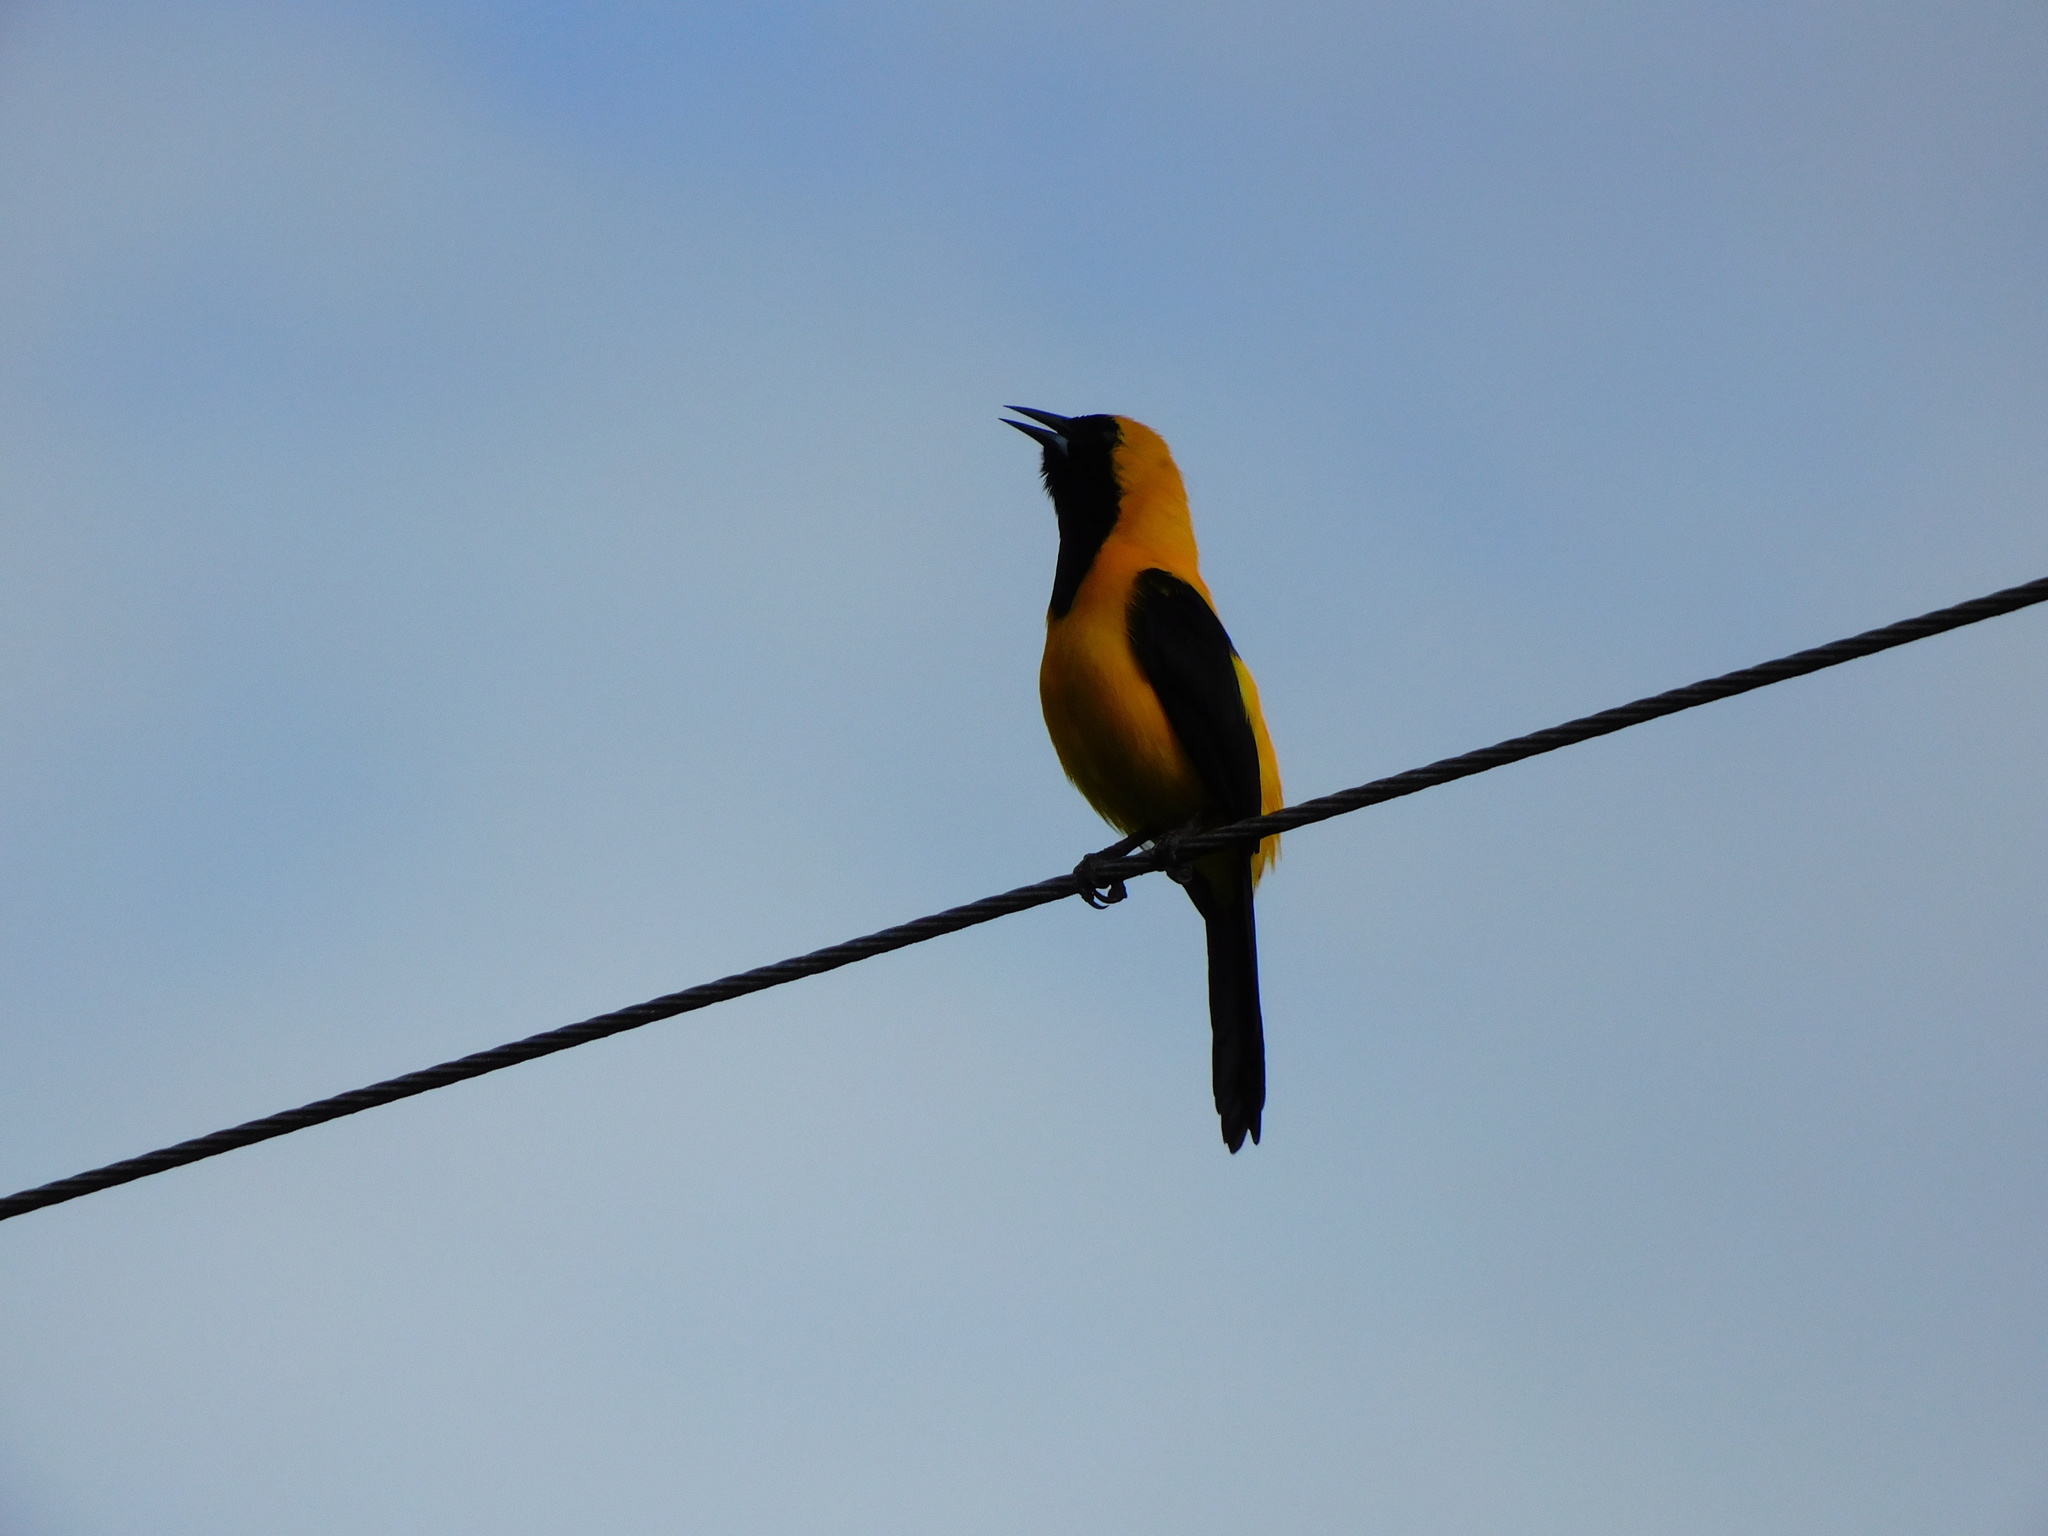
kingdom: Animalia
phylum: Chordata
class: Aves
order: Passeriformes
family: Icteridae
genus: Icterus
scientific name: Icterus chrysater
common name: Yellow-backed oriole
